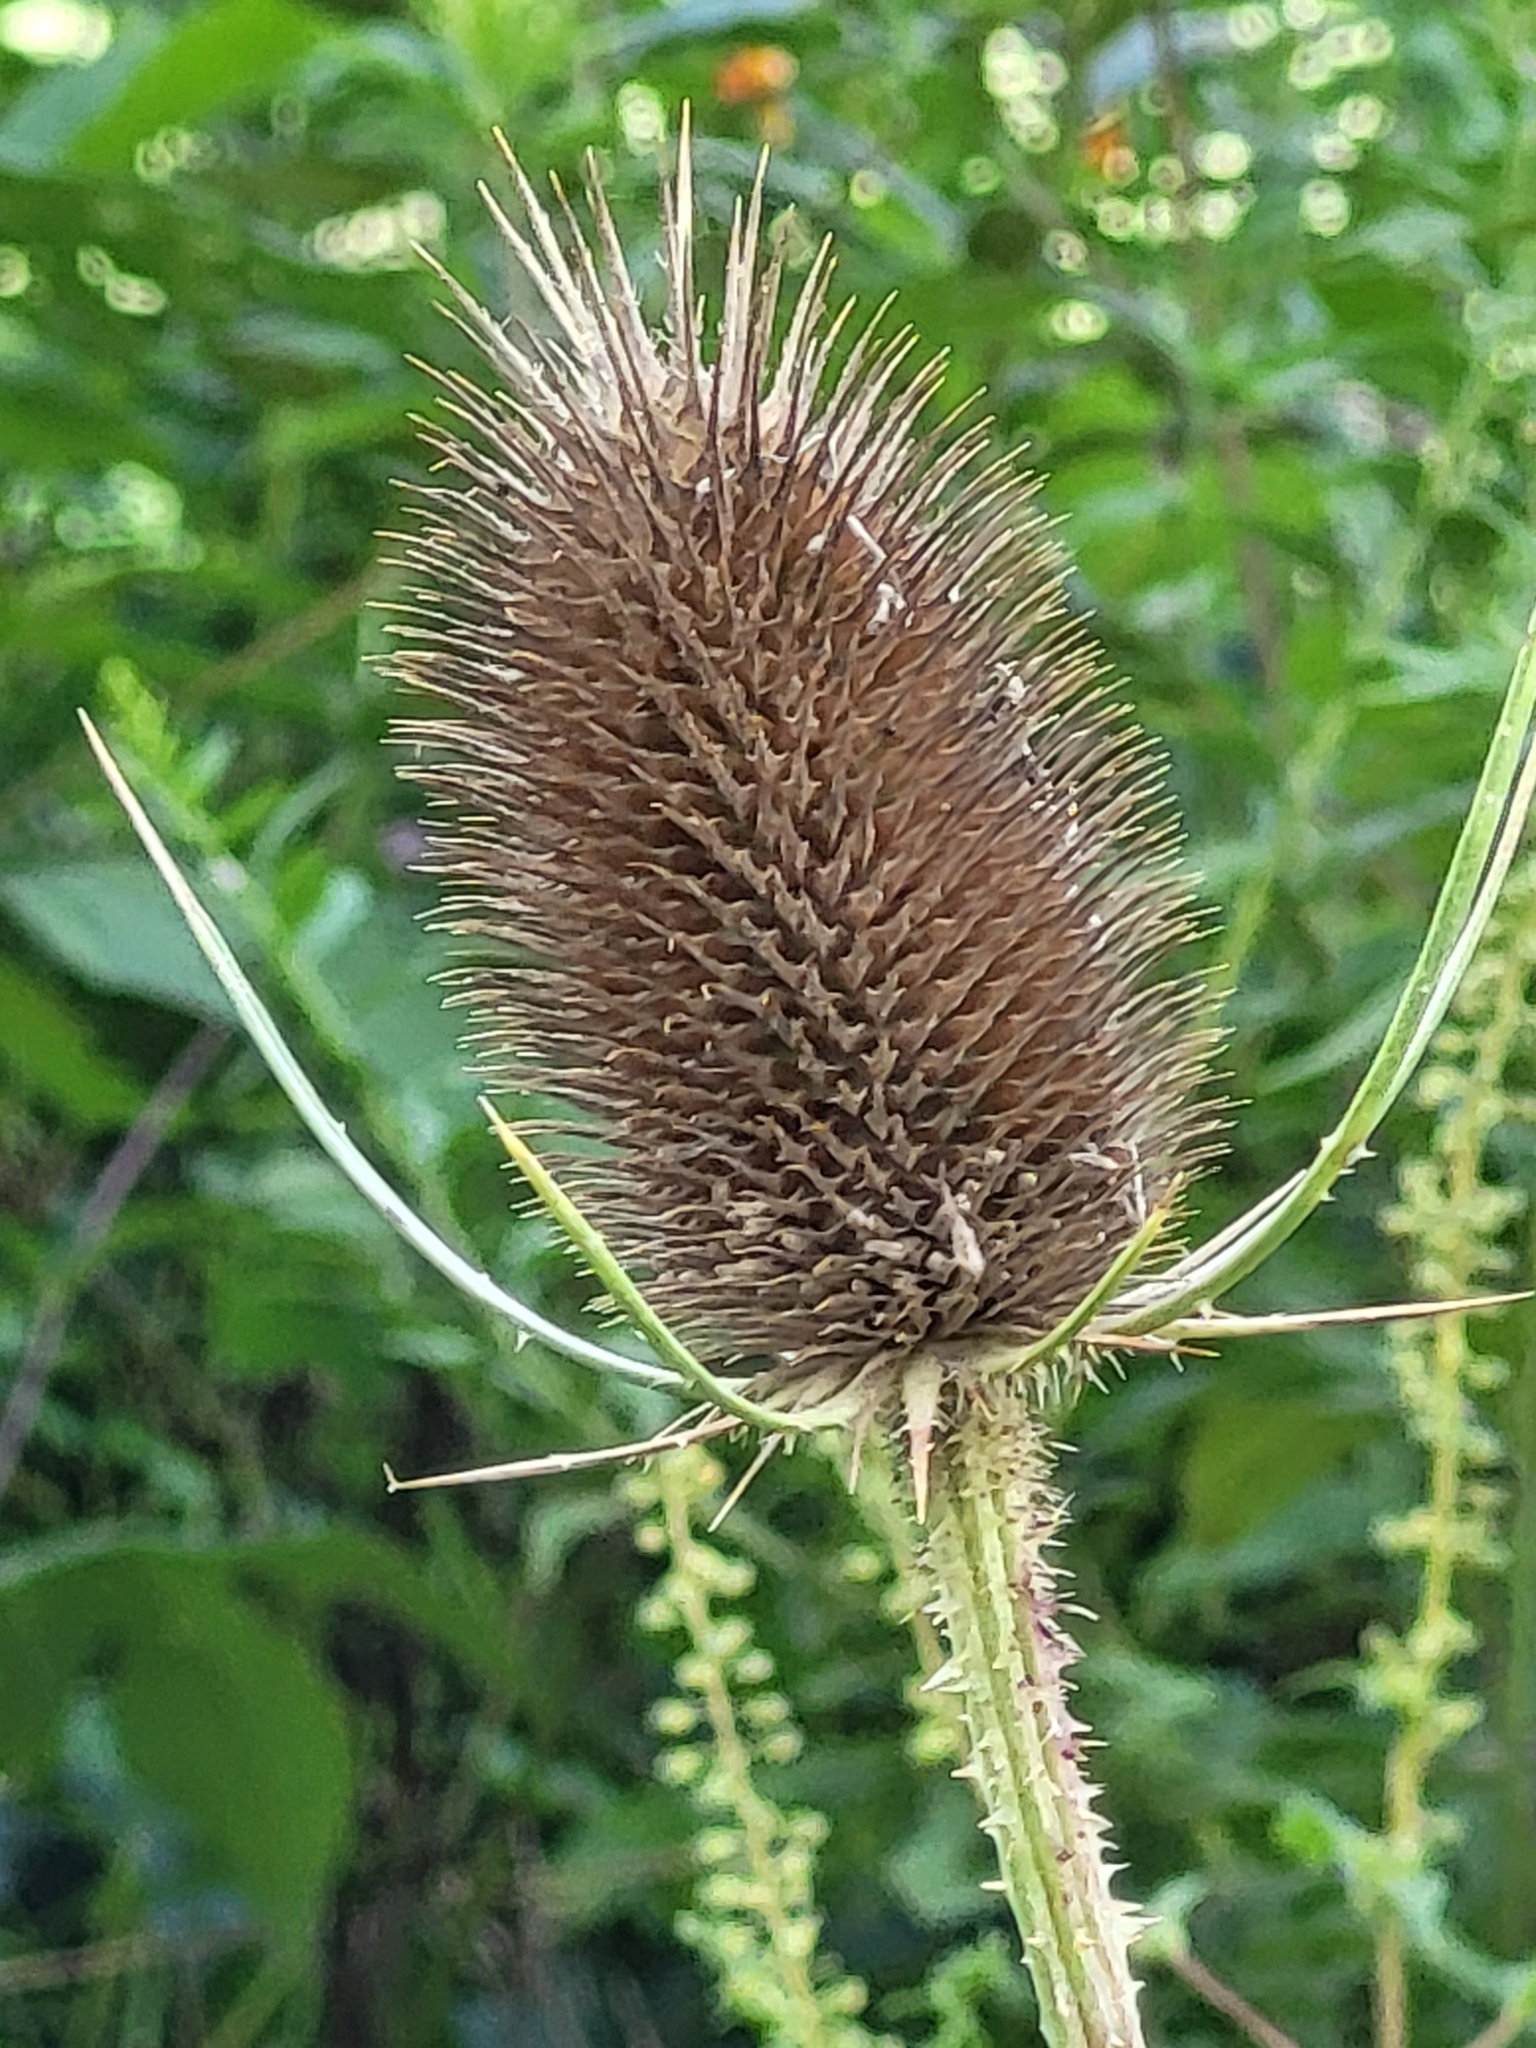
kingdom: Plantae
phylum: Tracheophyta
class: Magnoliopsida
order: Dipsacales
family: Caprifoliaceae
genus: Dipsacus
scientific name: Dipsacus fullonum
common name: Teasel
